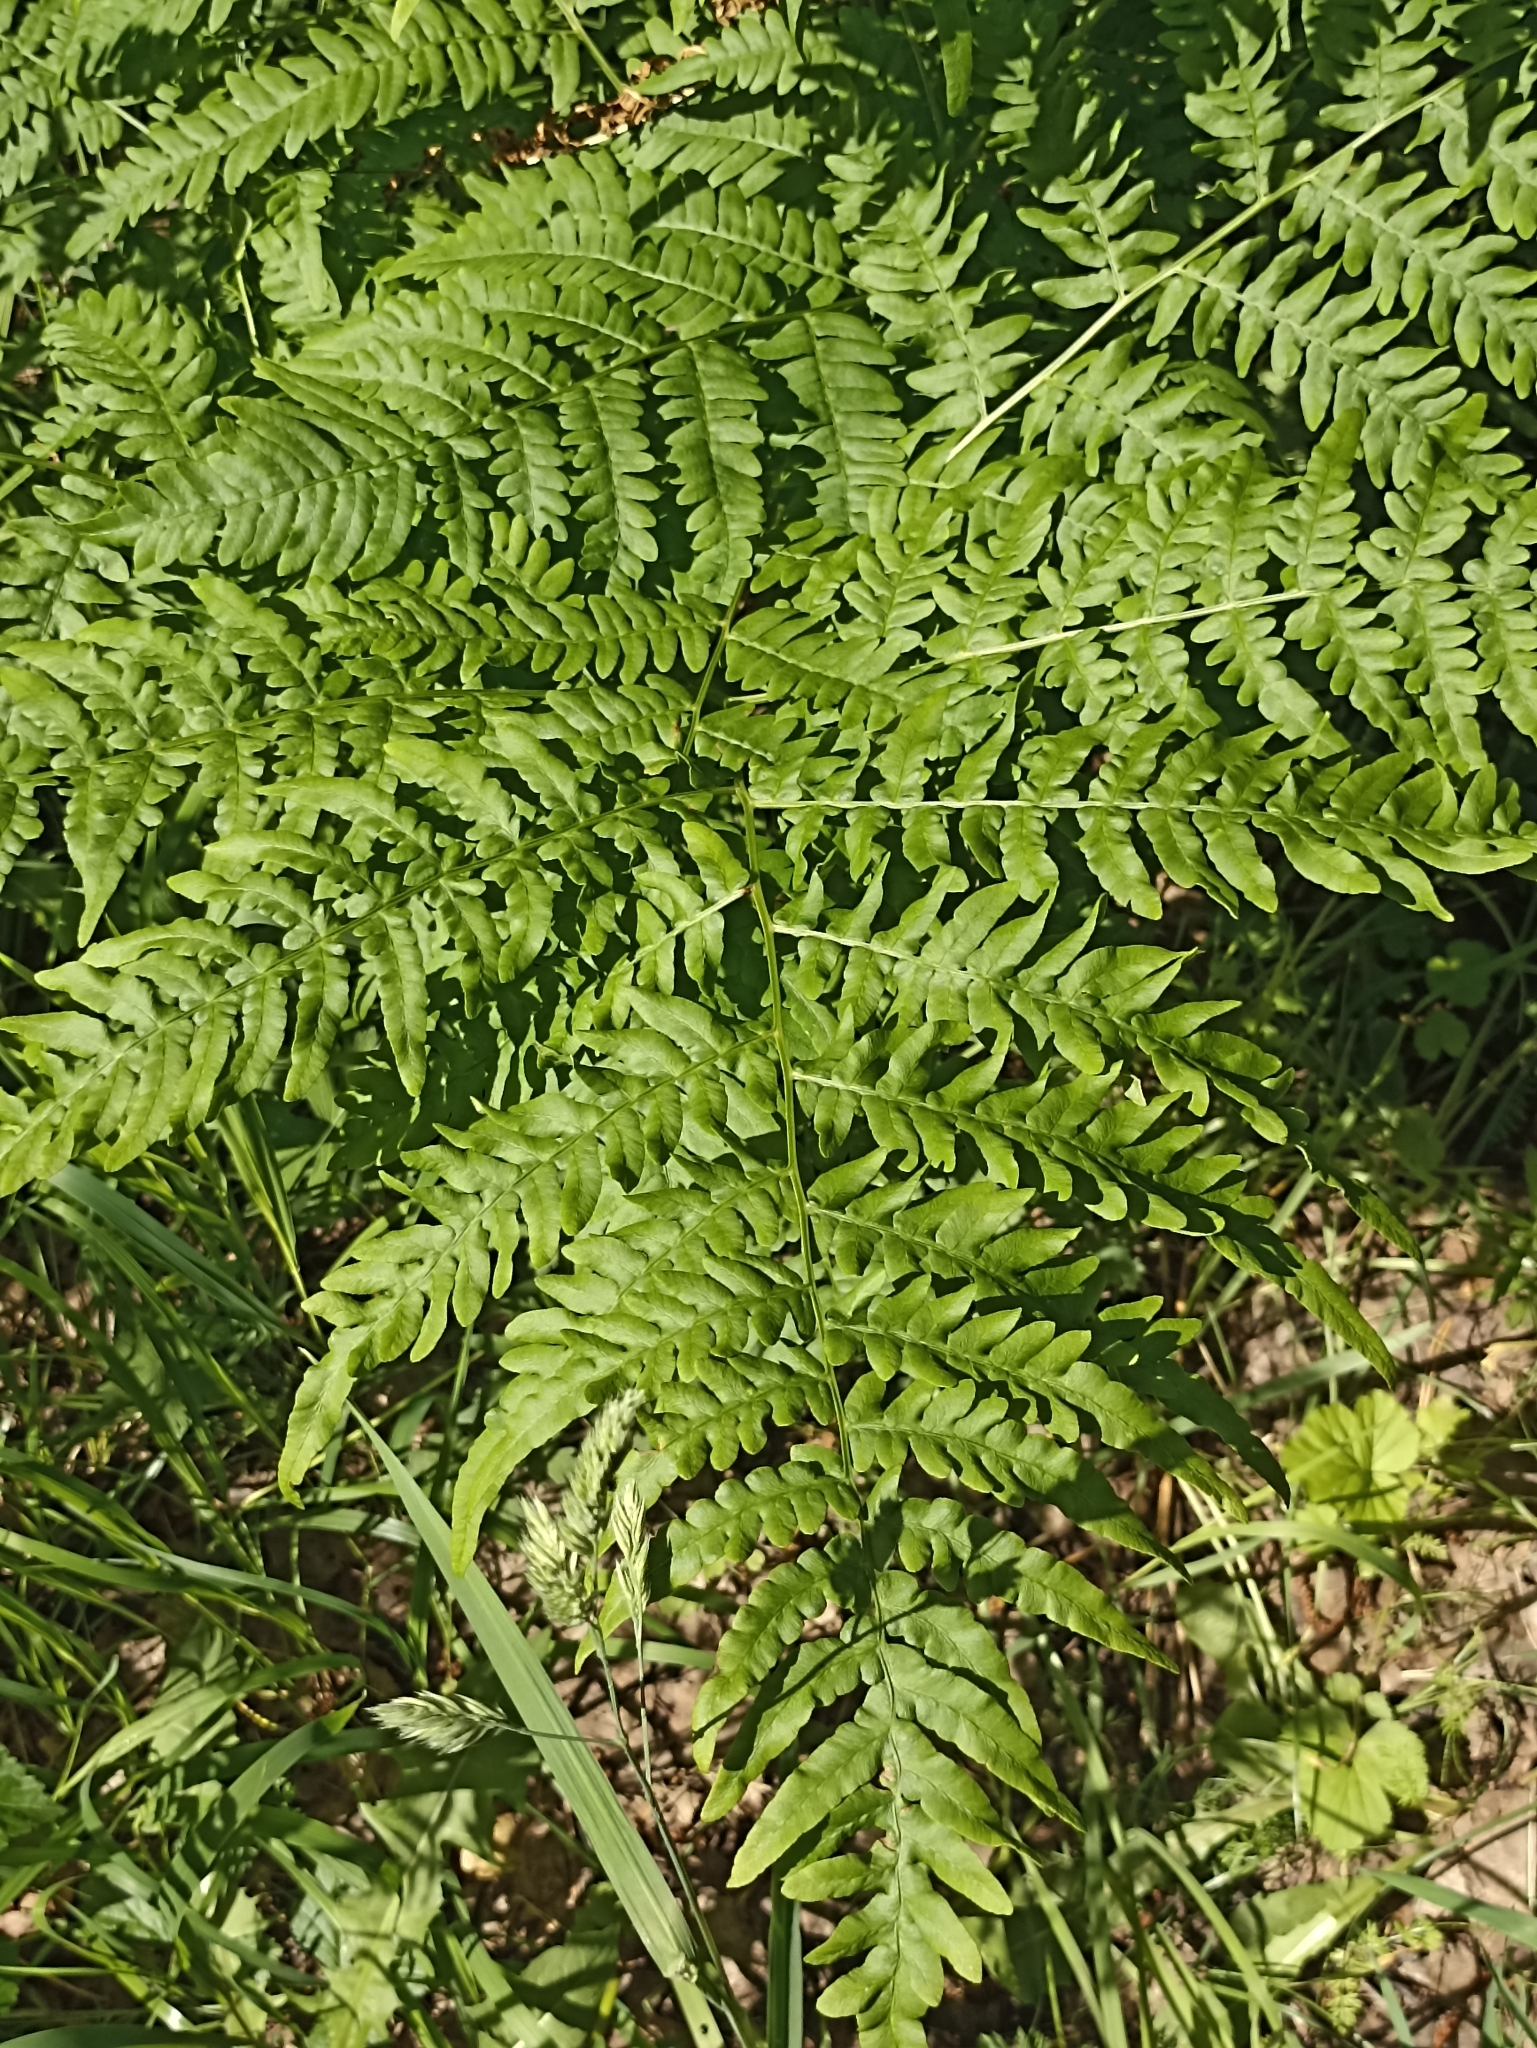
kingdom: Plantae
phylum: Tracheophyta
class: Polypodiopsida
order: Polypodiales
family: Dennstaedtiaceae
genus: Pteridium
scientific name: Pteridium aquilinum
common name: Bracken
